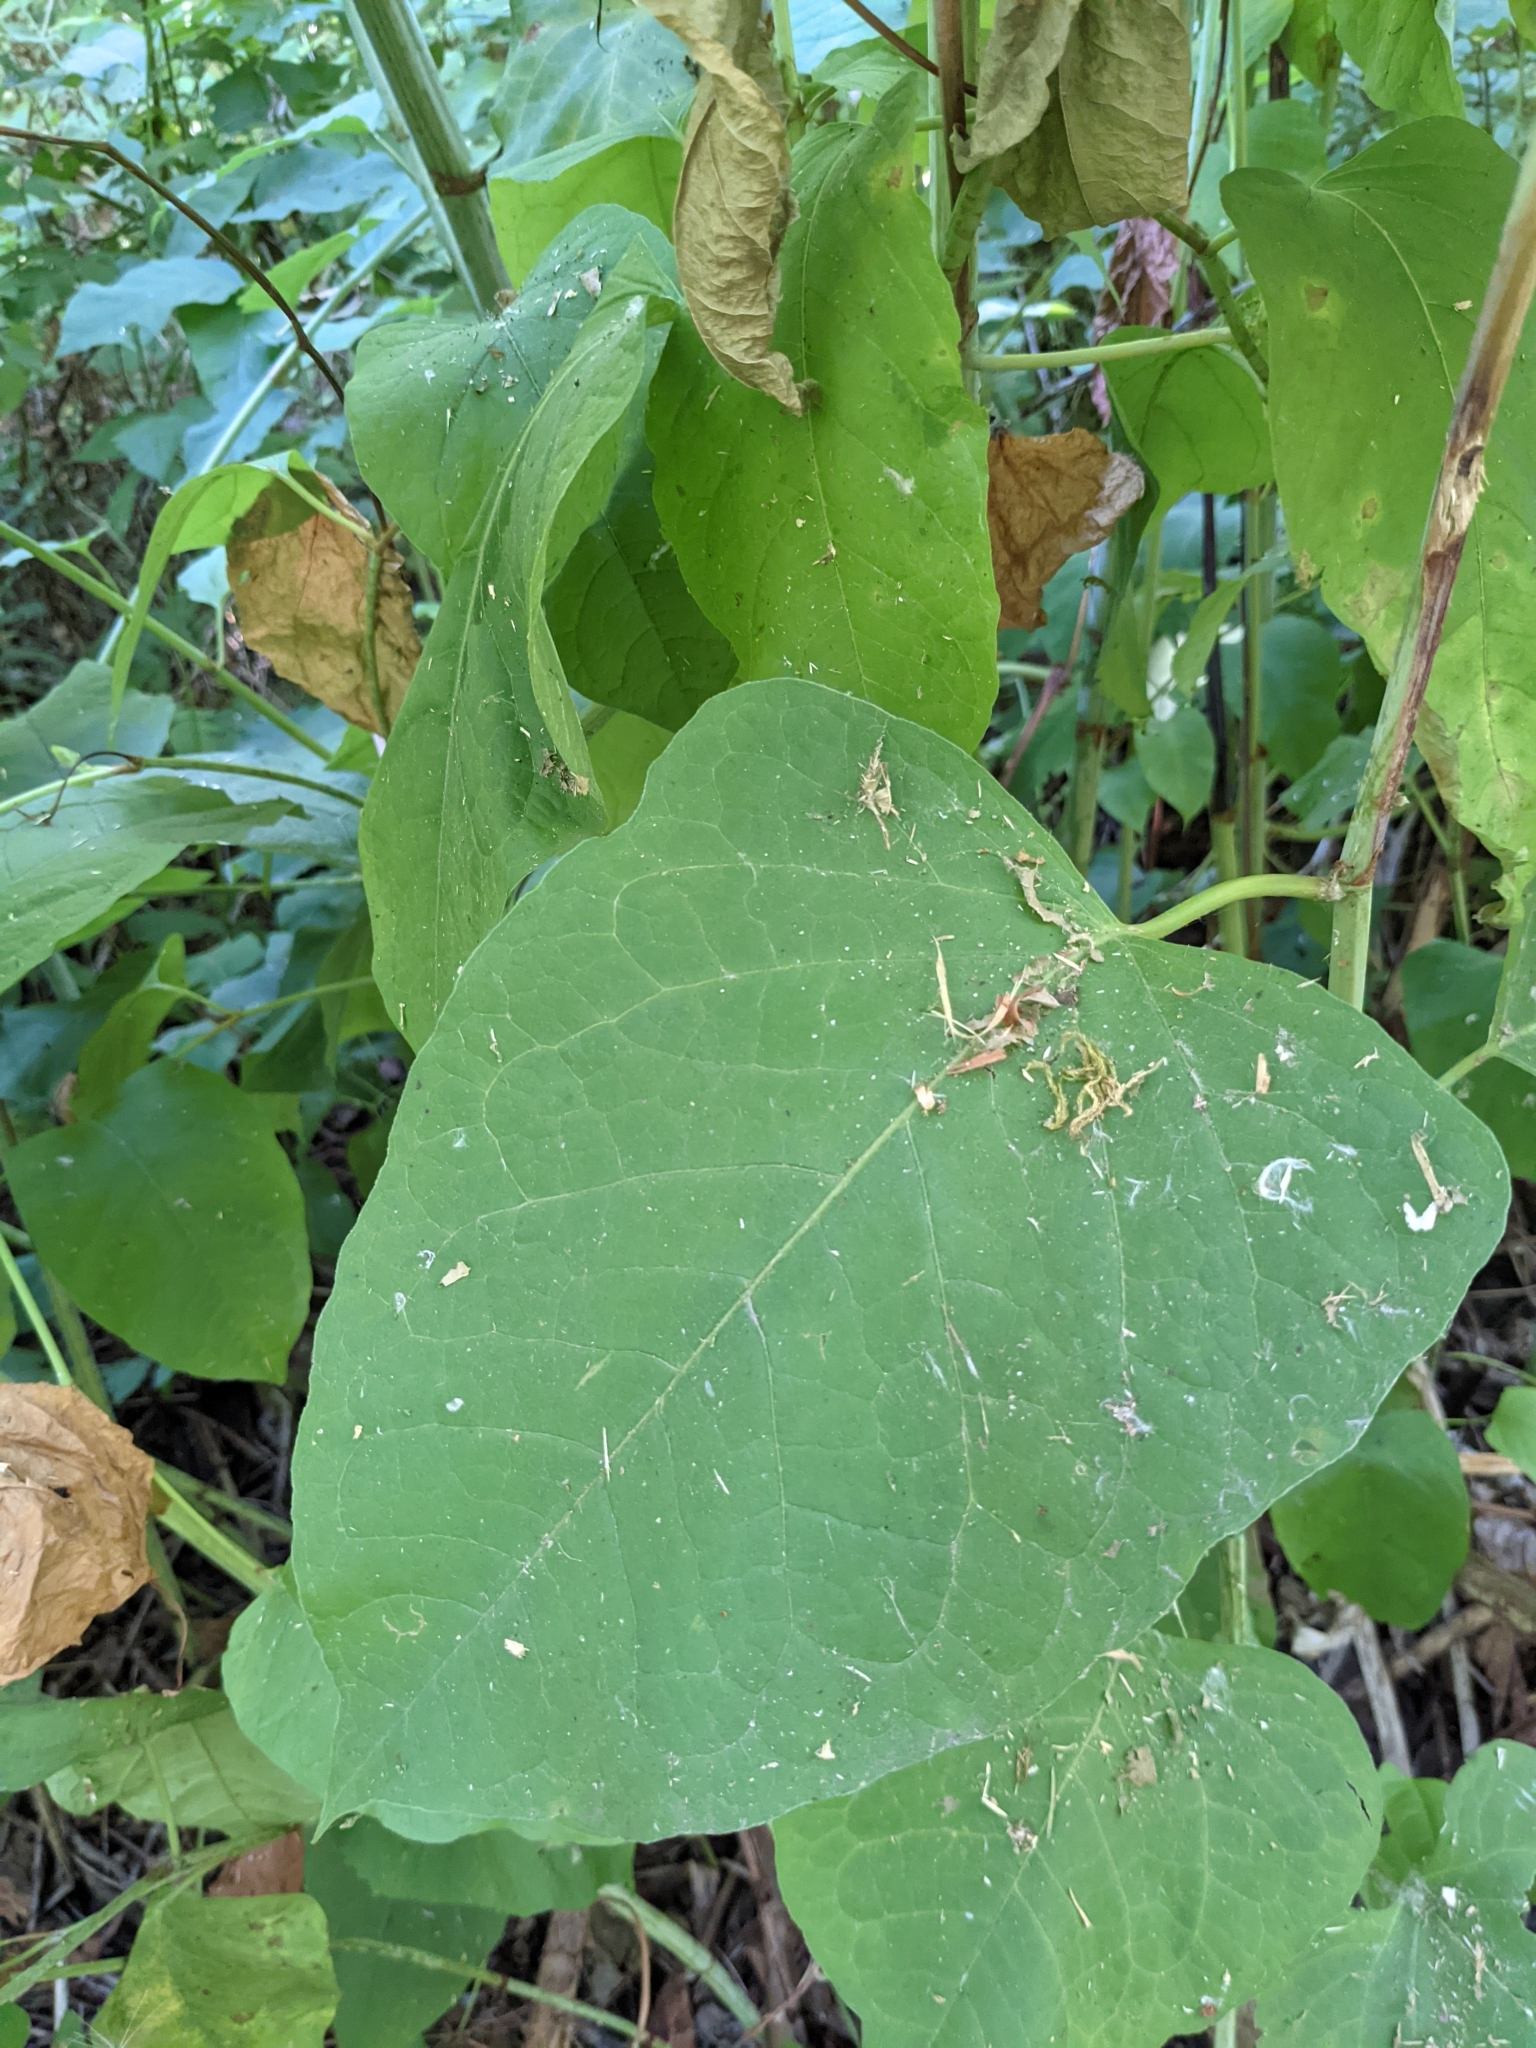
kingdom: Plantae
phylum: Tracheophyta
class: Magnoliopsida
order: Caryophyllales
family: Polygonaceae
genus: Reynoutria
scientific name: Reynoutria sachalinensis
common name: Giant knotweed
